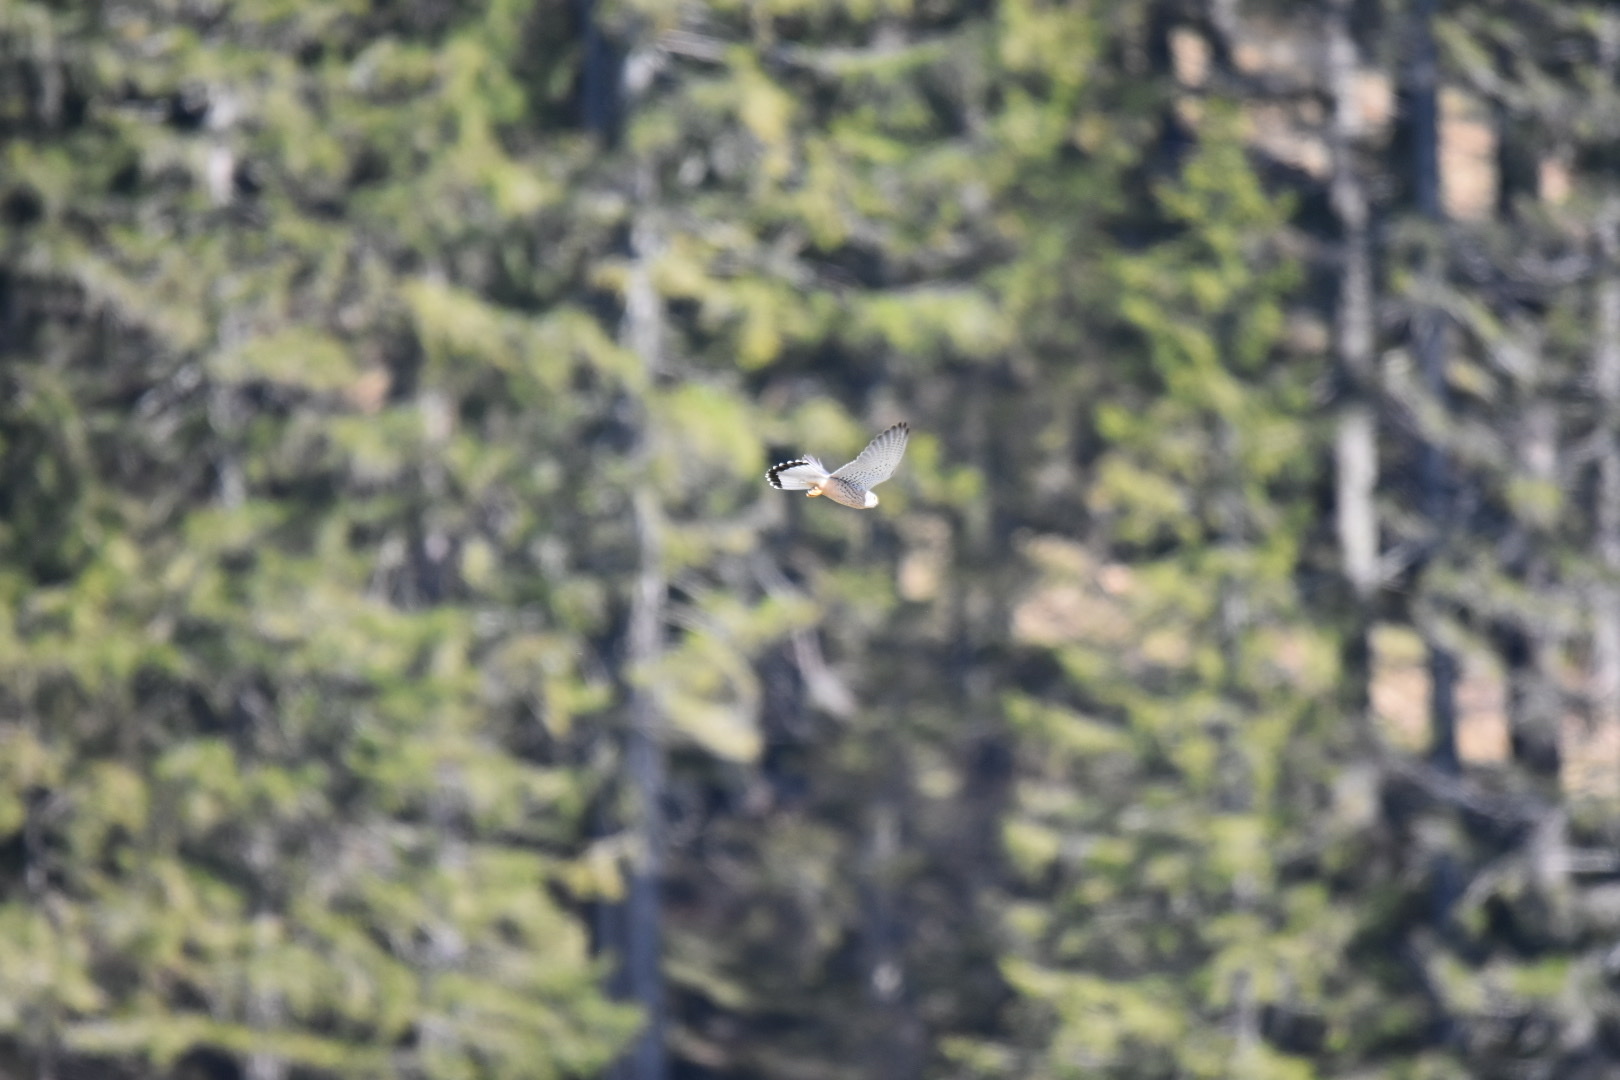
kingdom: Animalia
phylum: Chordata
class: Aves
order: Falconiformes
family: Falconidae
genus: Falco
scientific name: Falco tinnunculus
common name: Common kestrel
